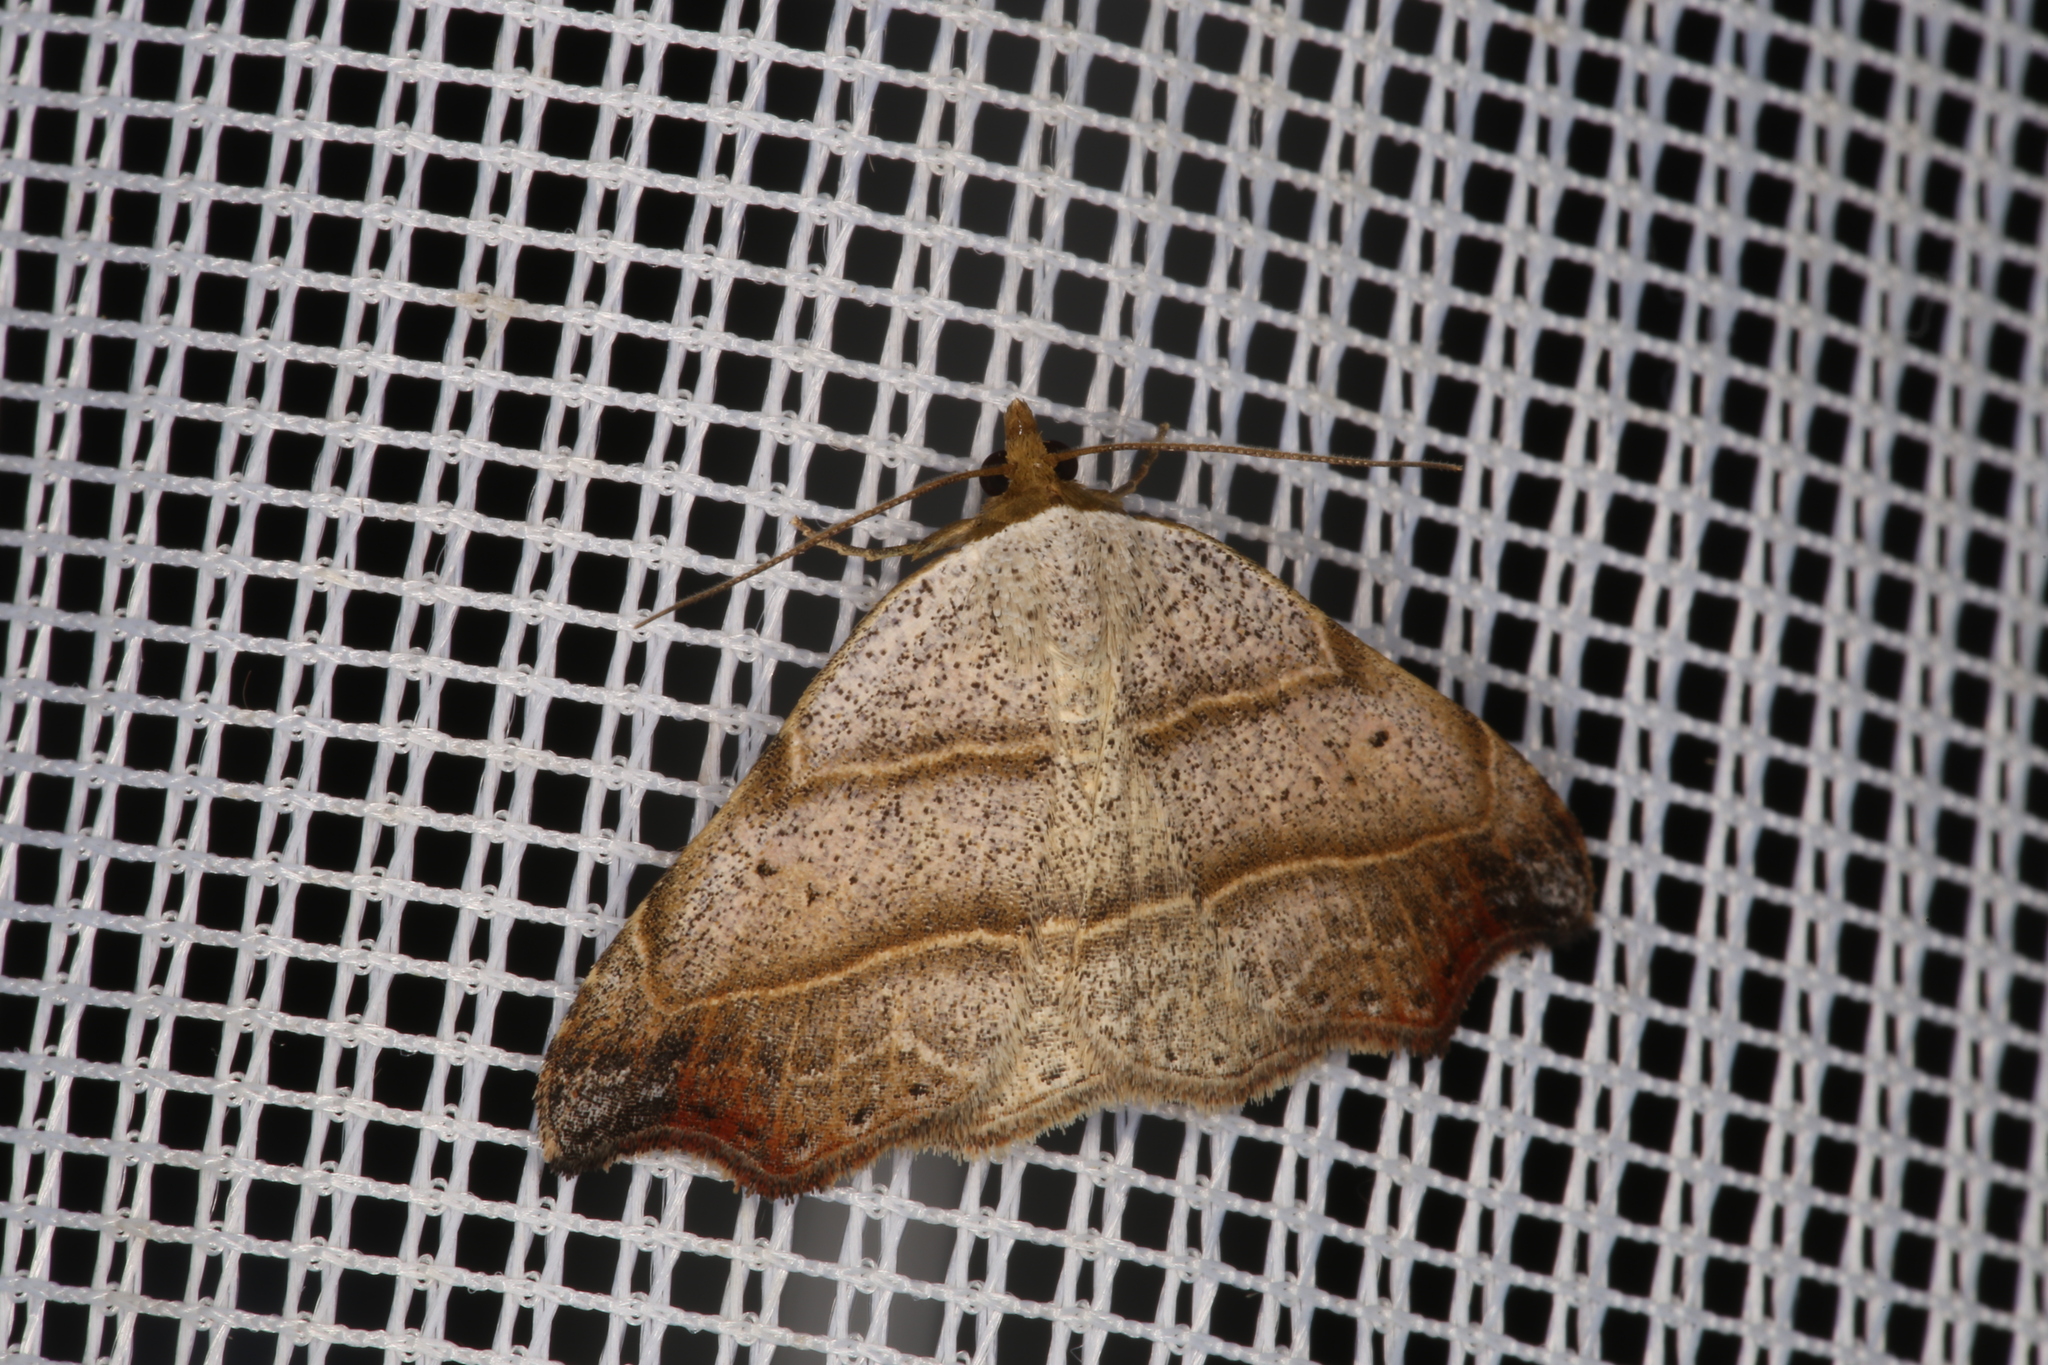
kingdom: Animalia
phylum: Arthropoda
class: Insecta
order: Lepidoptera
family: Erebidae
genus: Laspeyria
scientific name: Laspeyria flexula
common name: Beautiful hook-tip
